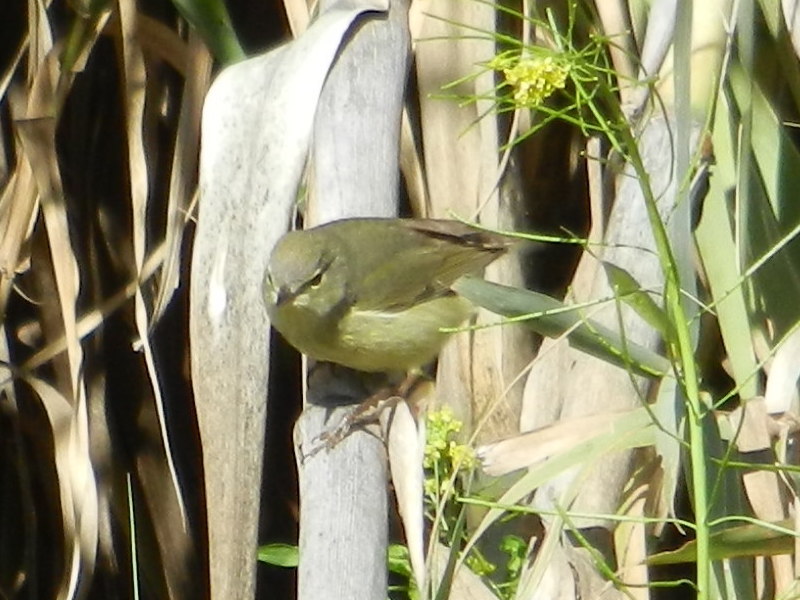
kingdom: Animalia
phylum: Chordata
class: Aves
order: Passeriformes
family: Parulidae
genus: Leiothlypis
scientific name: Leiothlypis celata
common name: Orange-crowned warbler
